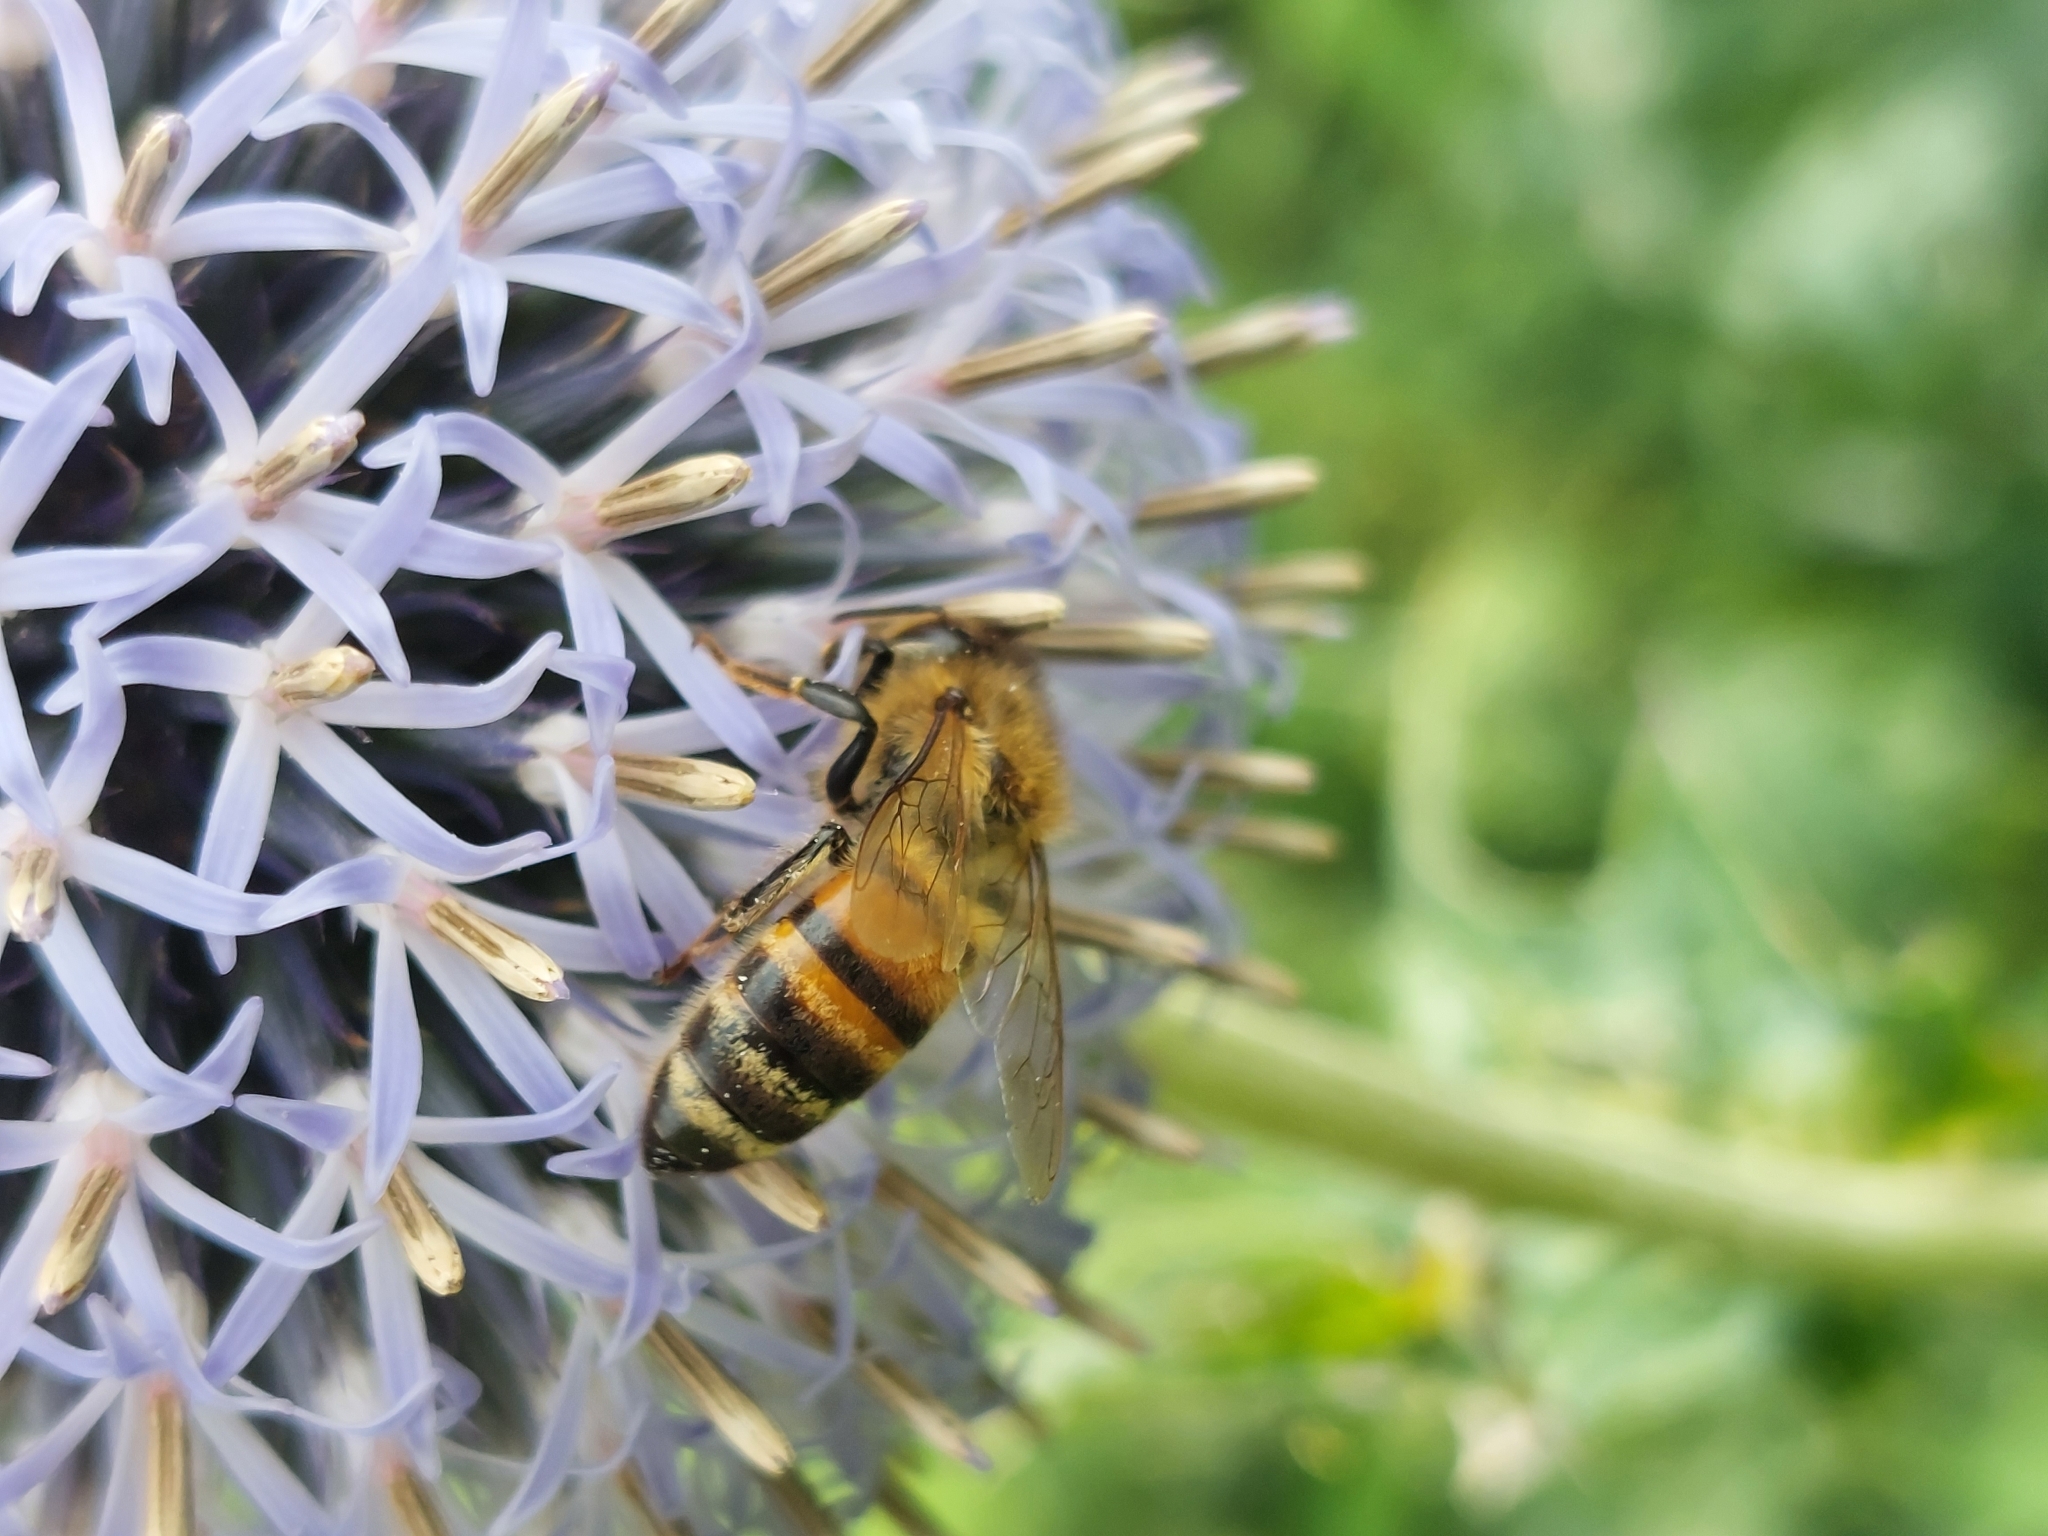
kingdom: Animalia
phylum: Arthropoda
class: Insecta
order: Hymenoptera
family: Apidae
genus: Apis
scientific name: Apis mellifera
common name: Honey bee
